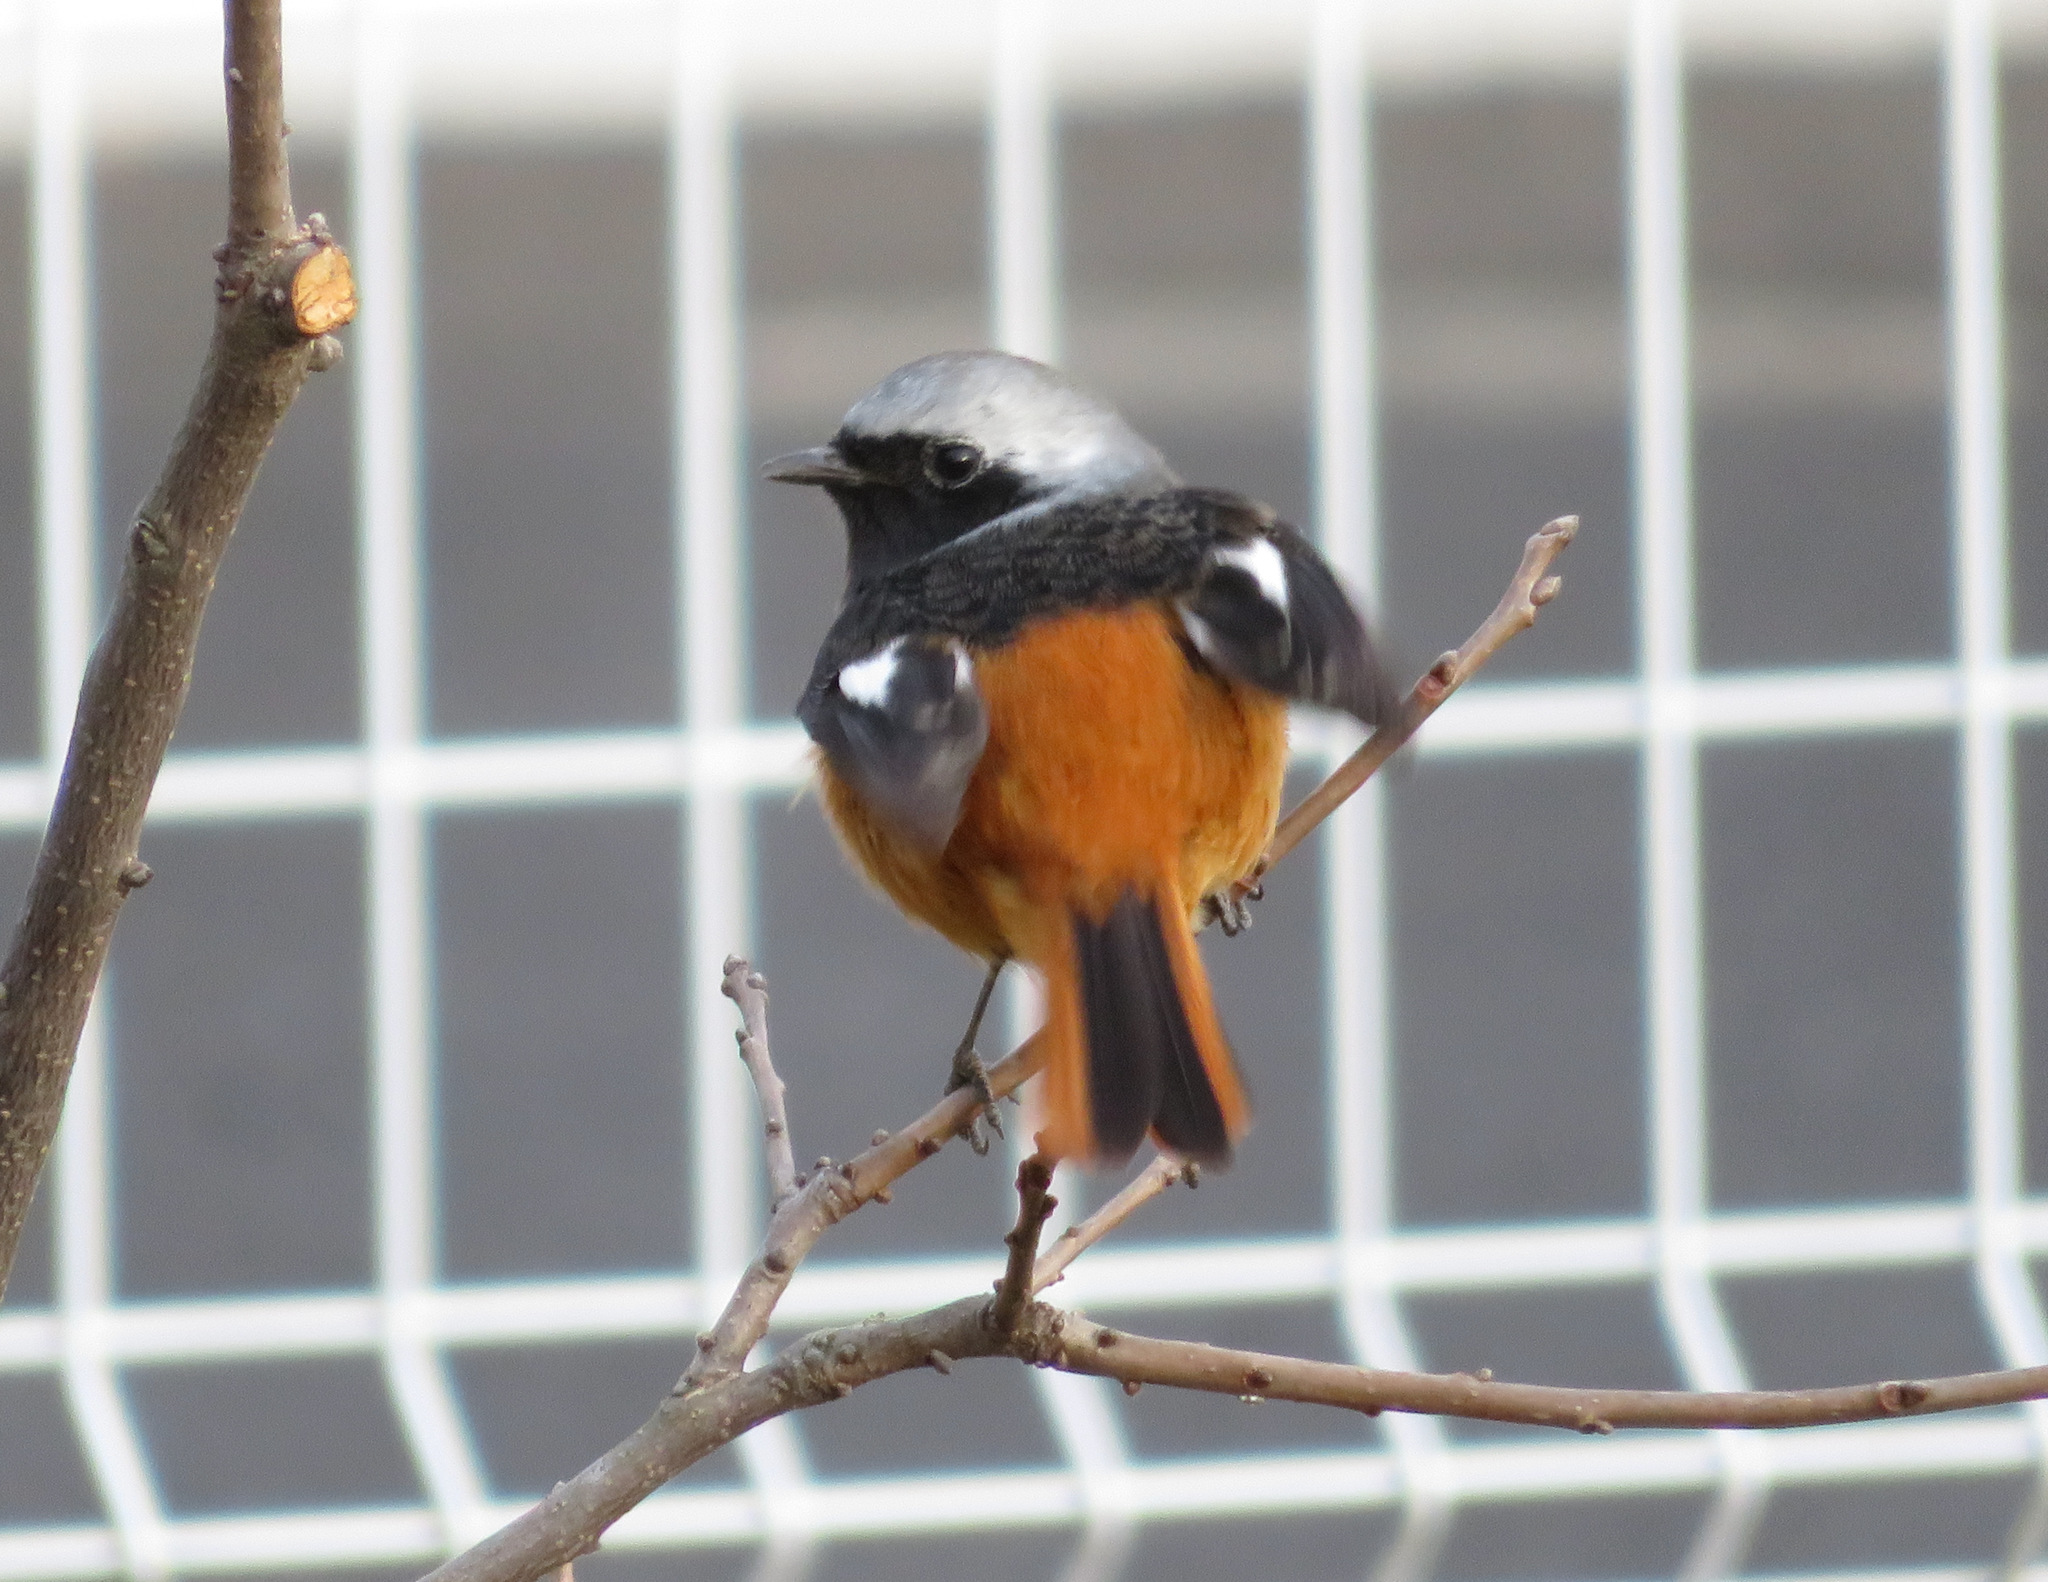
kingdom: Animalia
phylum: Chordata
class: Aves
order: Passeriformes
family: Muscicapidae
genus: Phoenicurus
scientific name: Phoenicurus auroreus
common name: Daurian redstart
